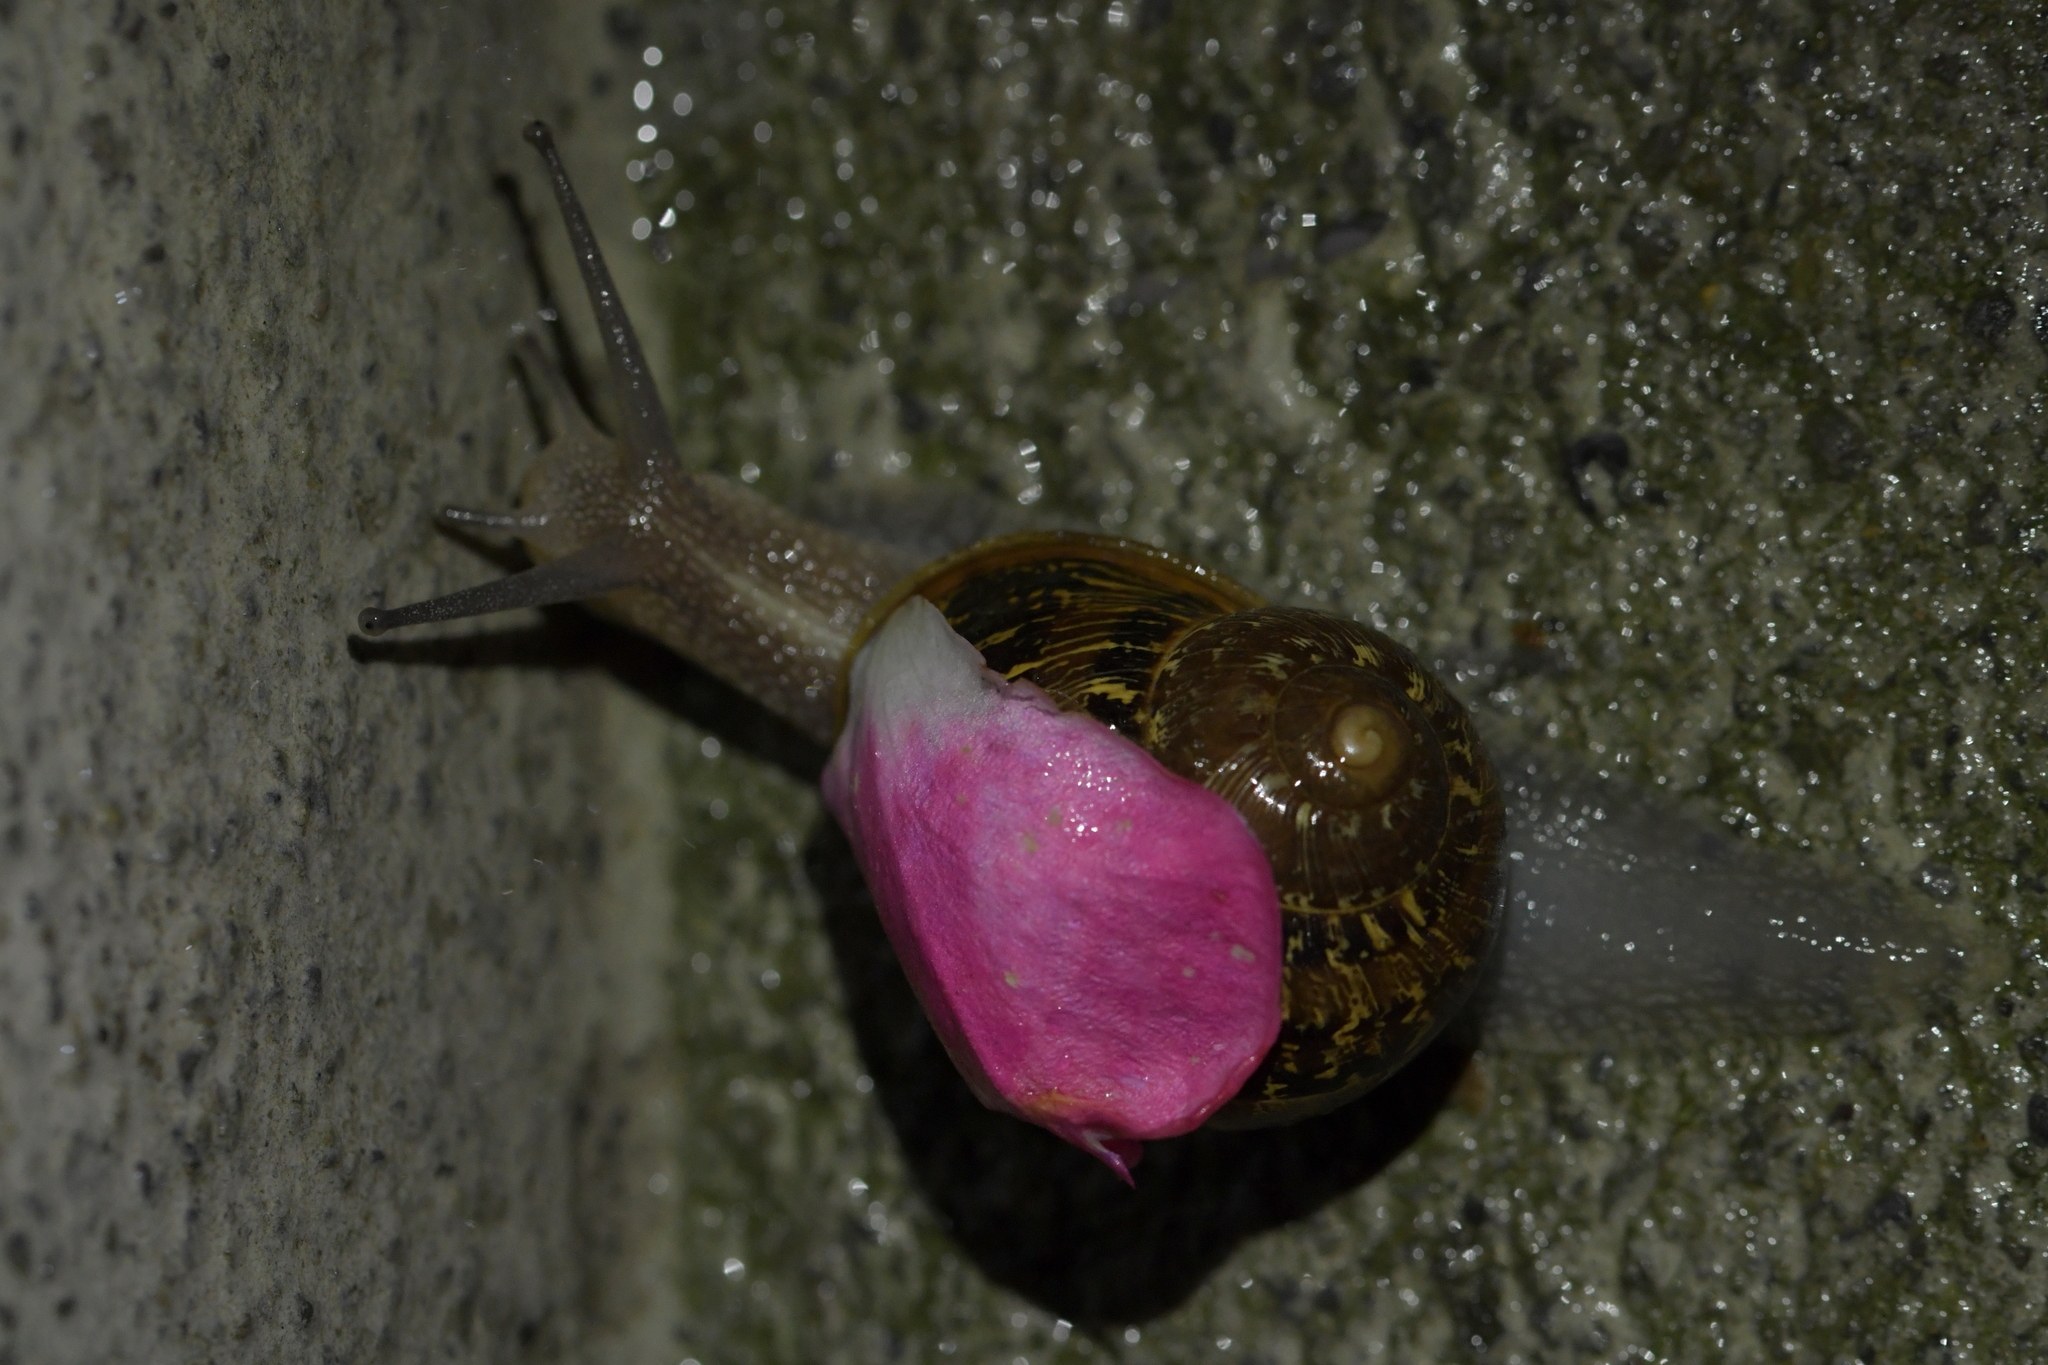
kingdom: Animalia
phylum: Mollusca
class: Gastropoda
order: Stylommatophora
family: Helicidae
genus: Cornu
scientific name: Cornu aspersum
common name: Brown garden snail
